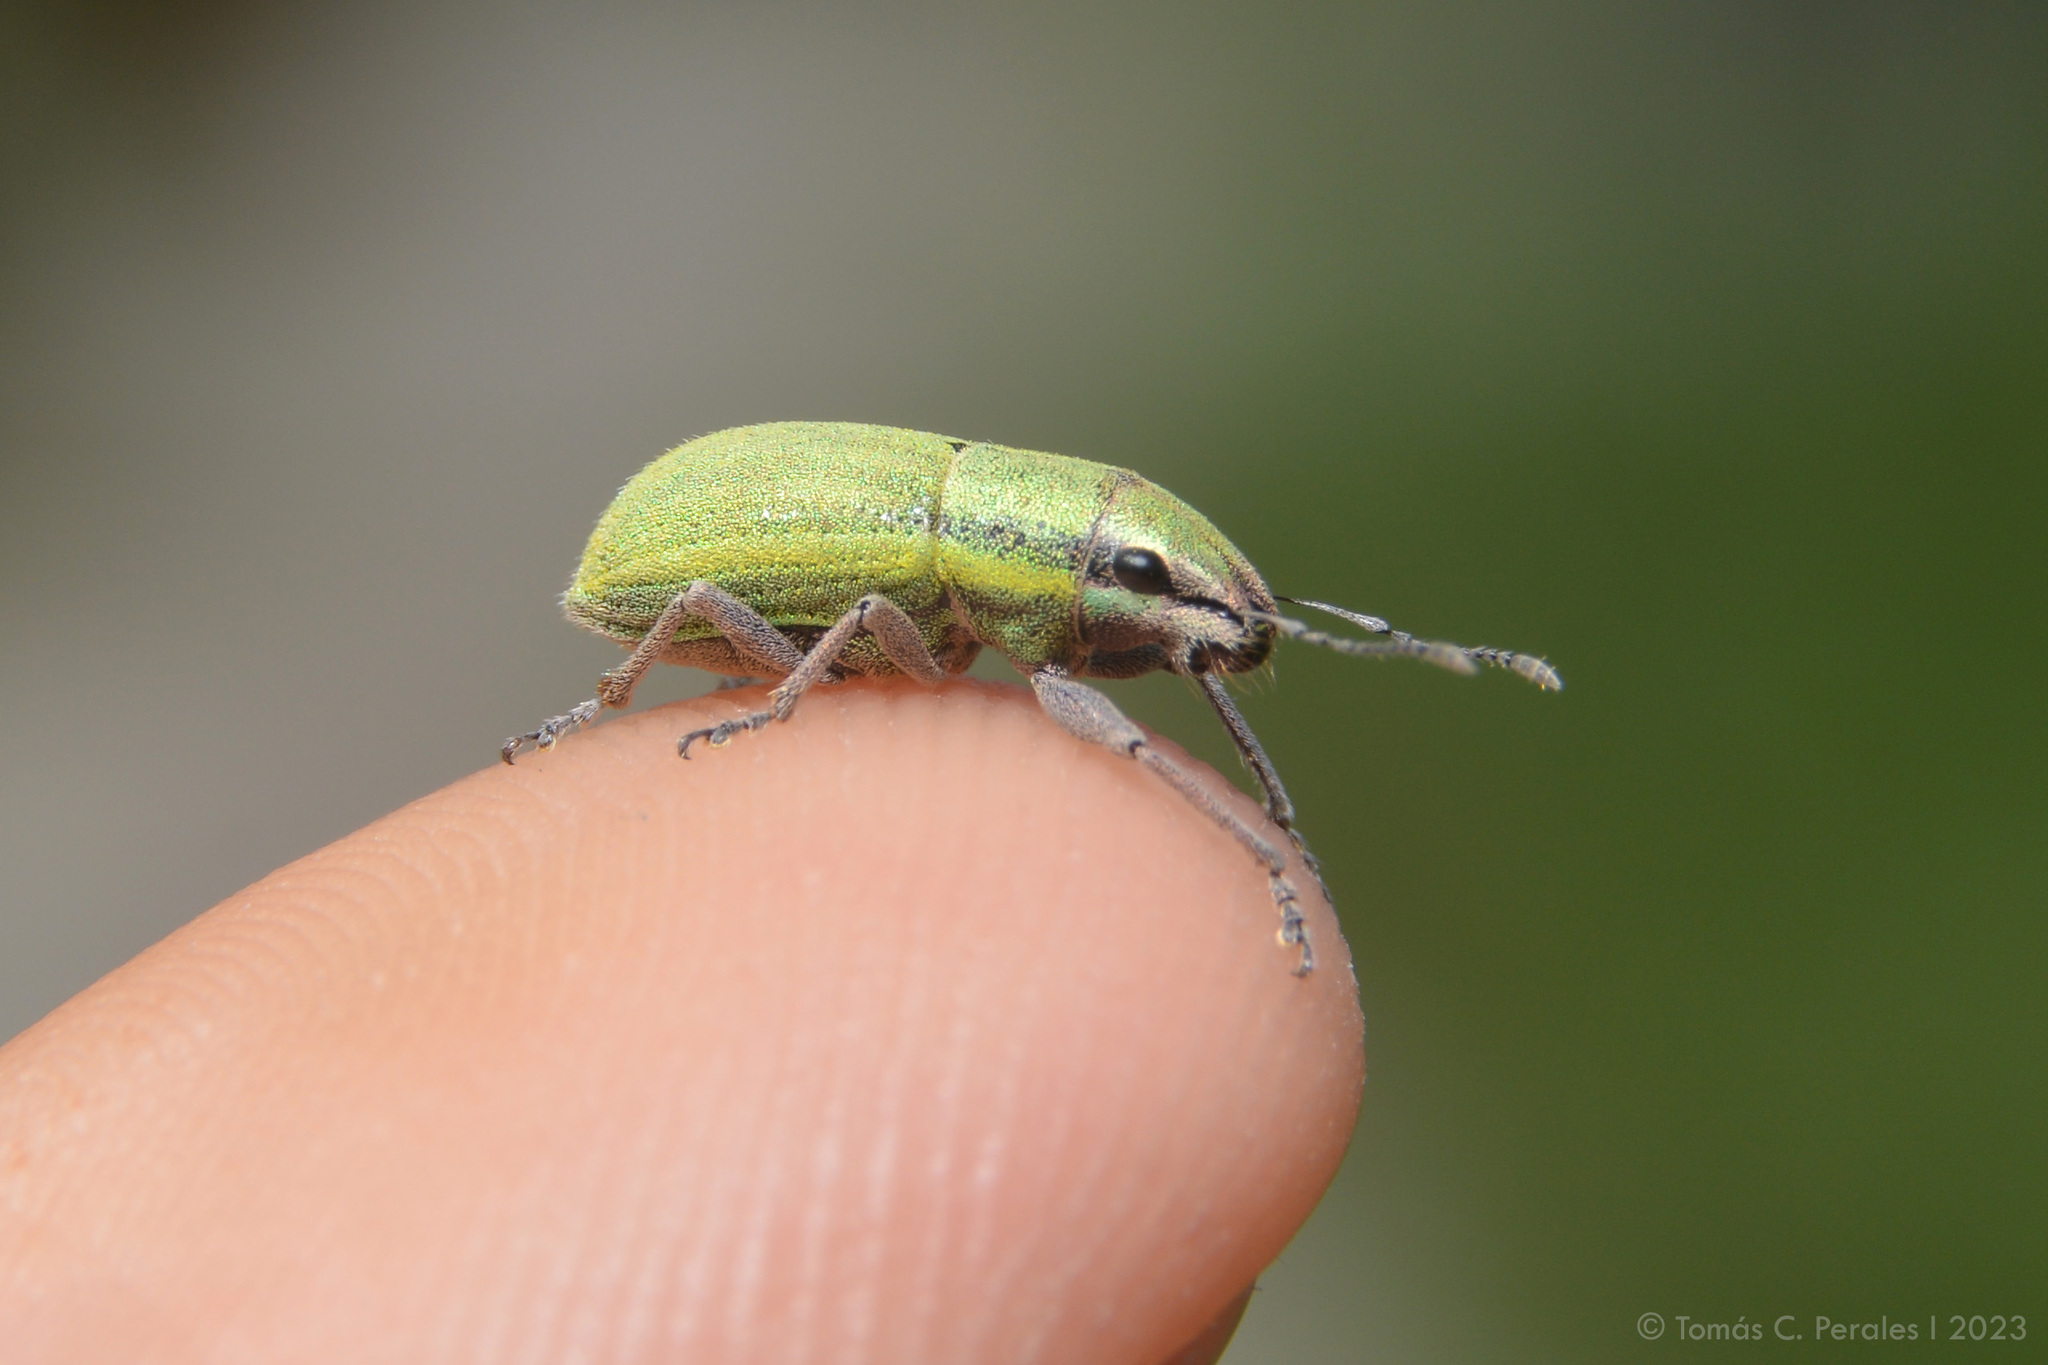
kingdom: Animalia
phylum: Arthropoda
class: Insecta
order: Coleoptera
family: Curculionidae
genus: Pantomorus
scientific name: Pantomorus viridisquamosus
